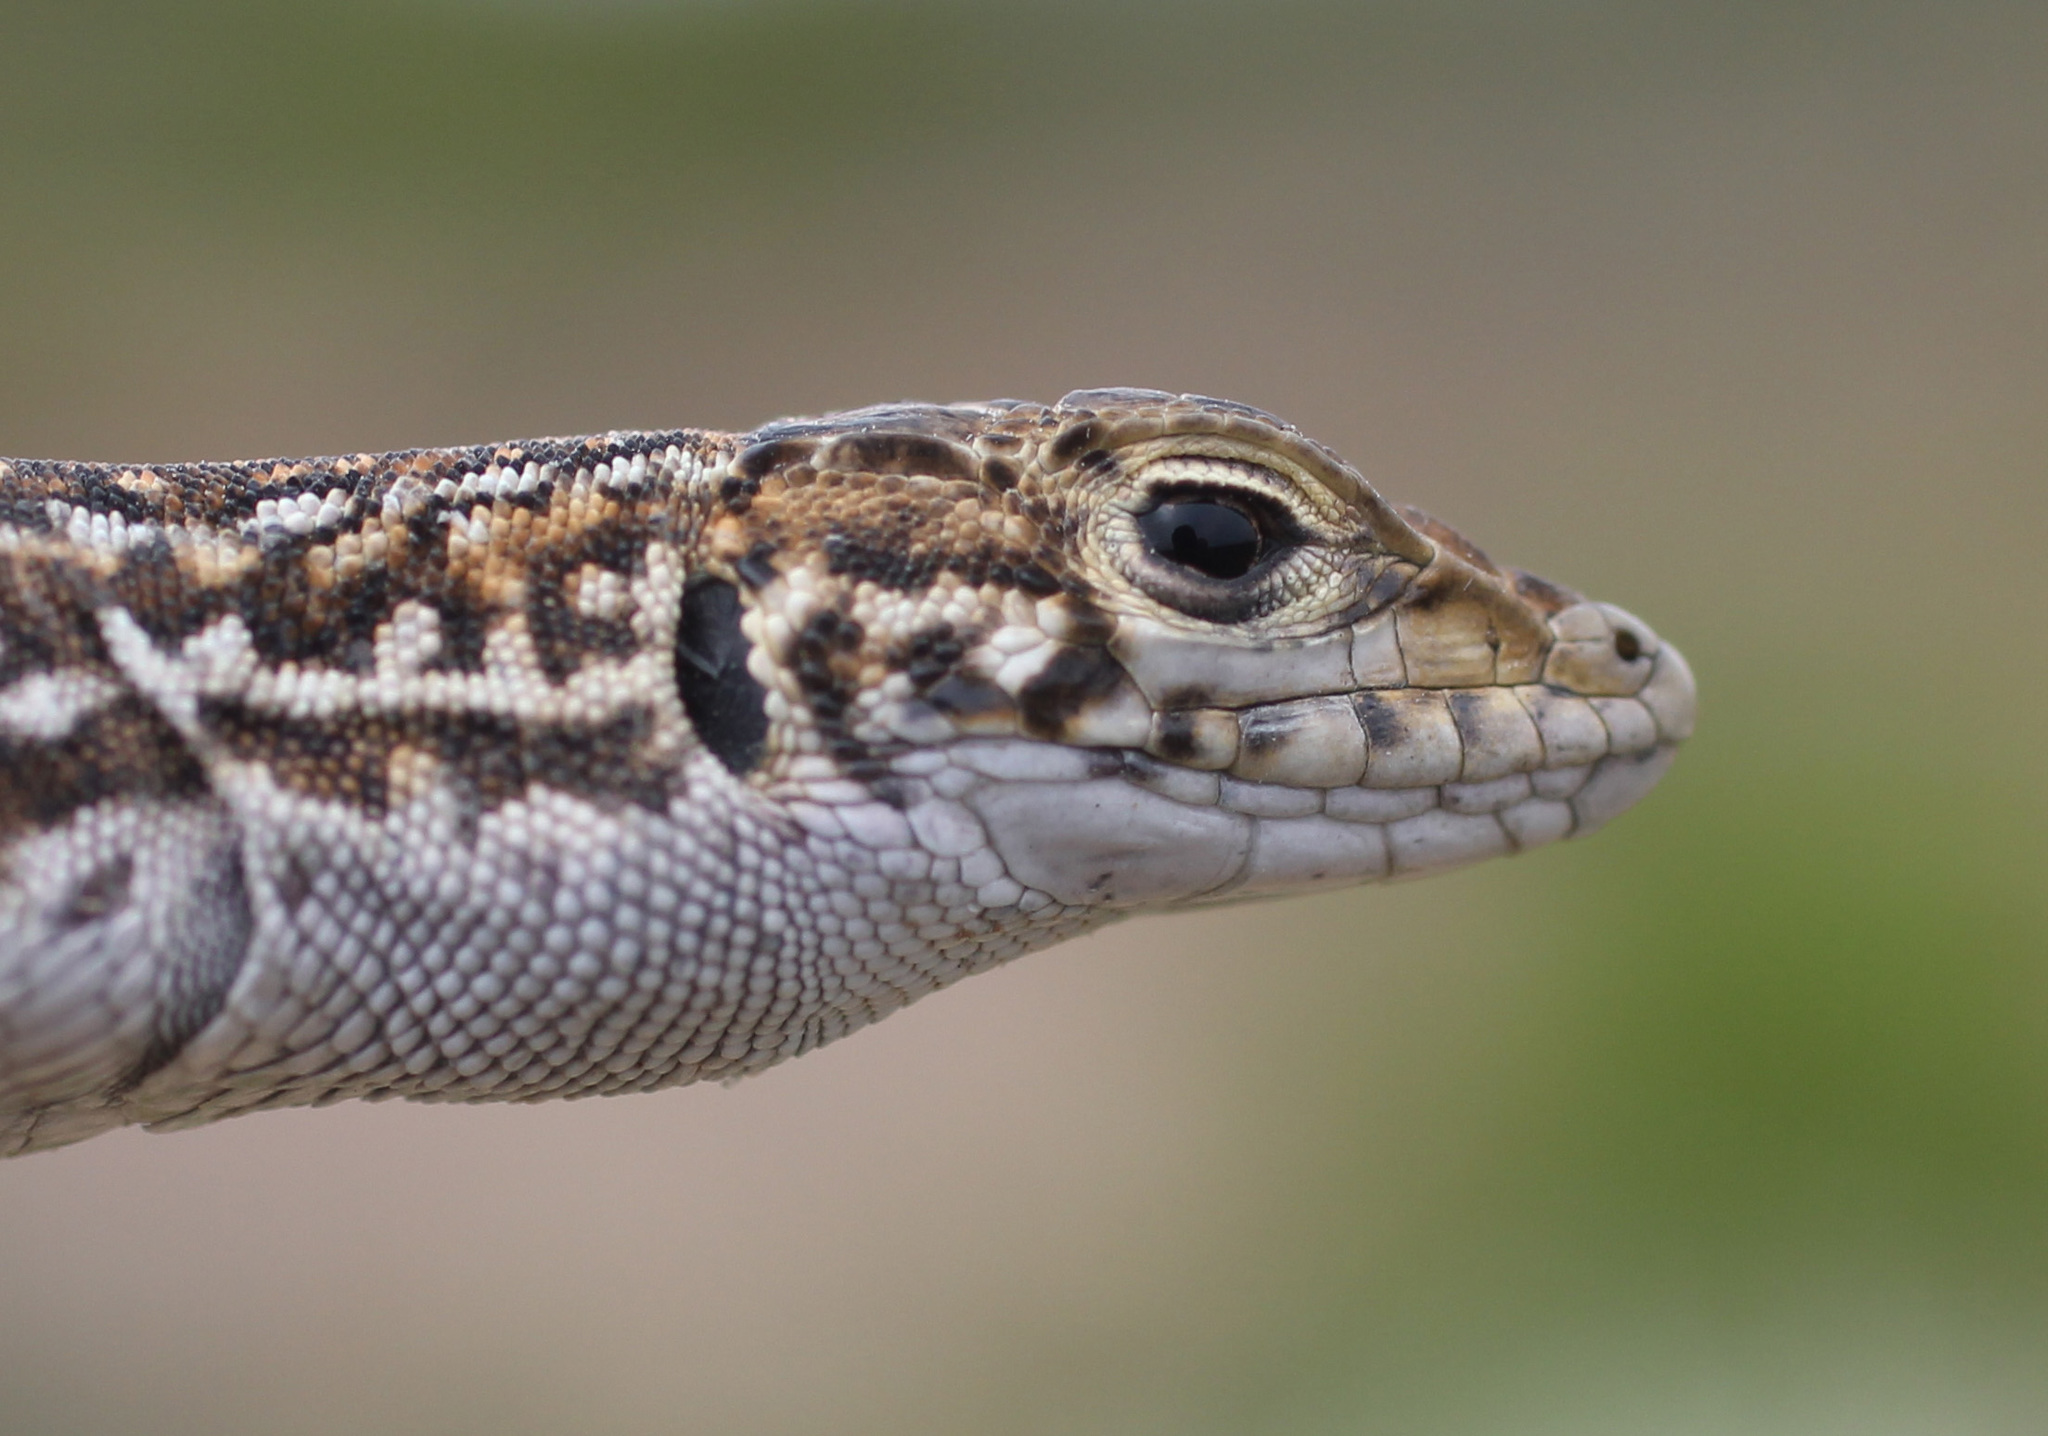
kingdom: Animalia
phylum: Chordata
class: Squamata
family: Lacertidae
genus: Meroles
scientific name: Meroles knoxii
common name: Knox's desert lizard
